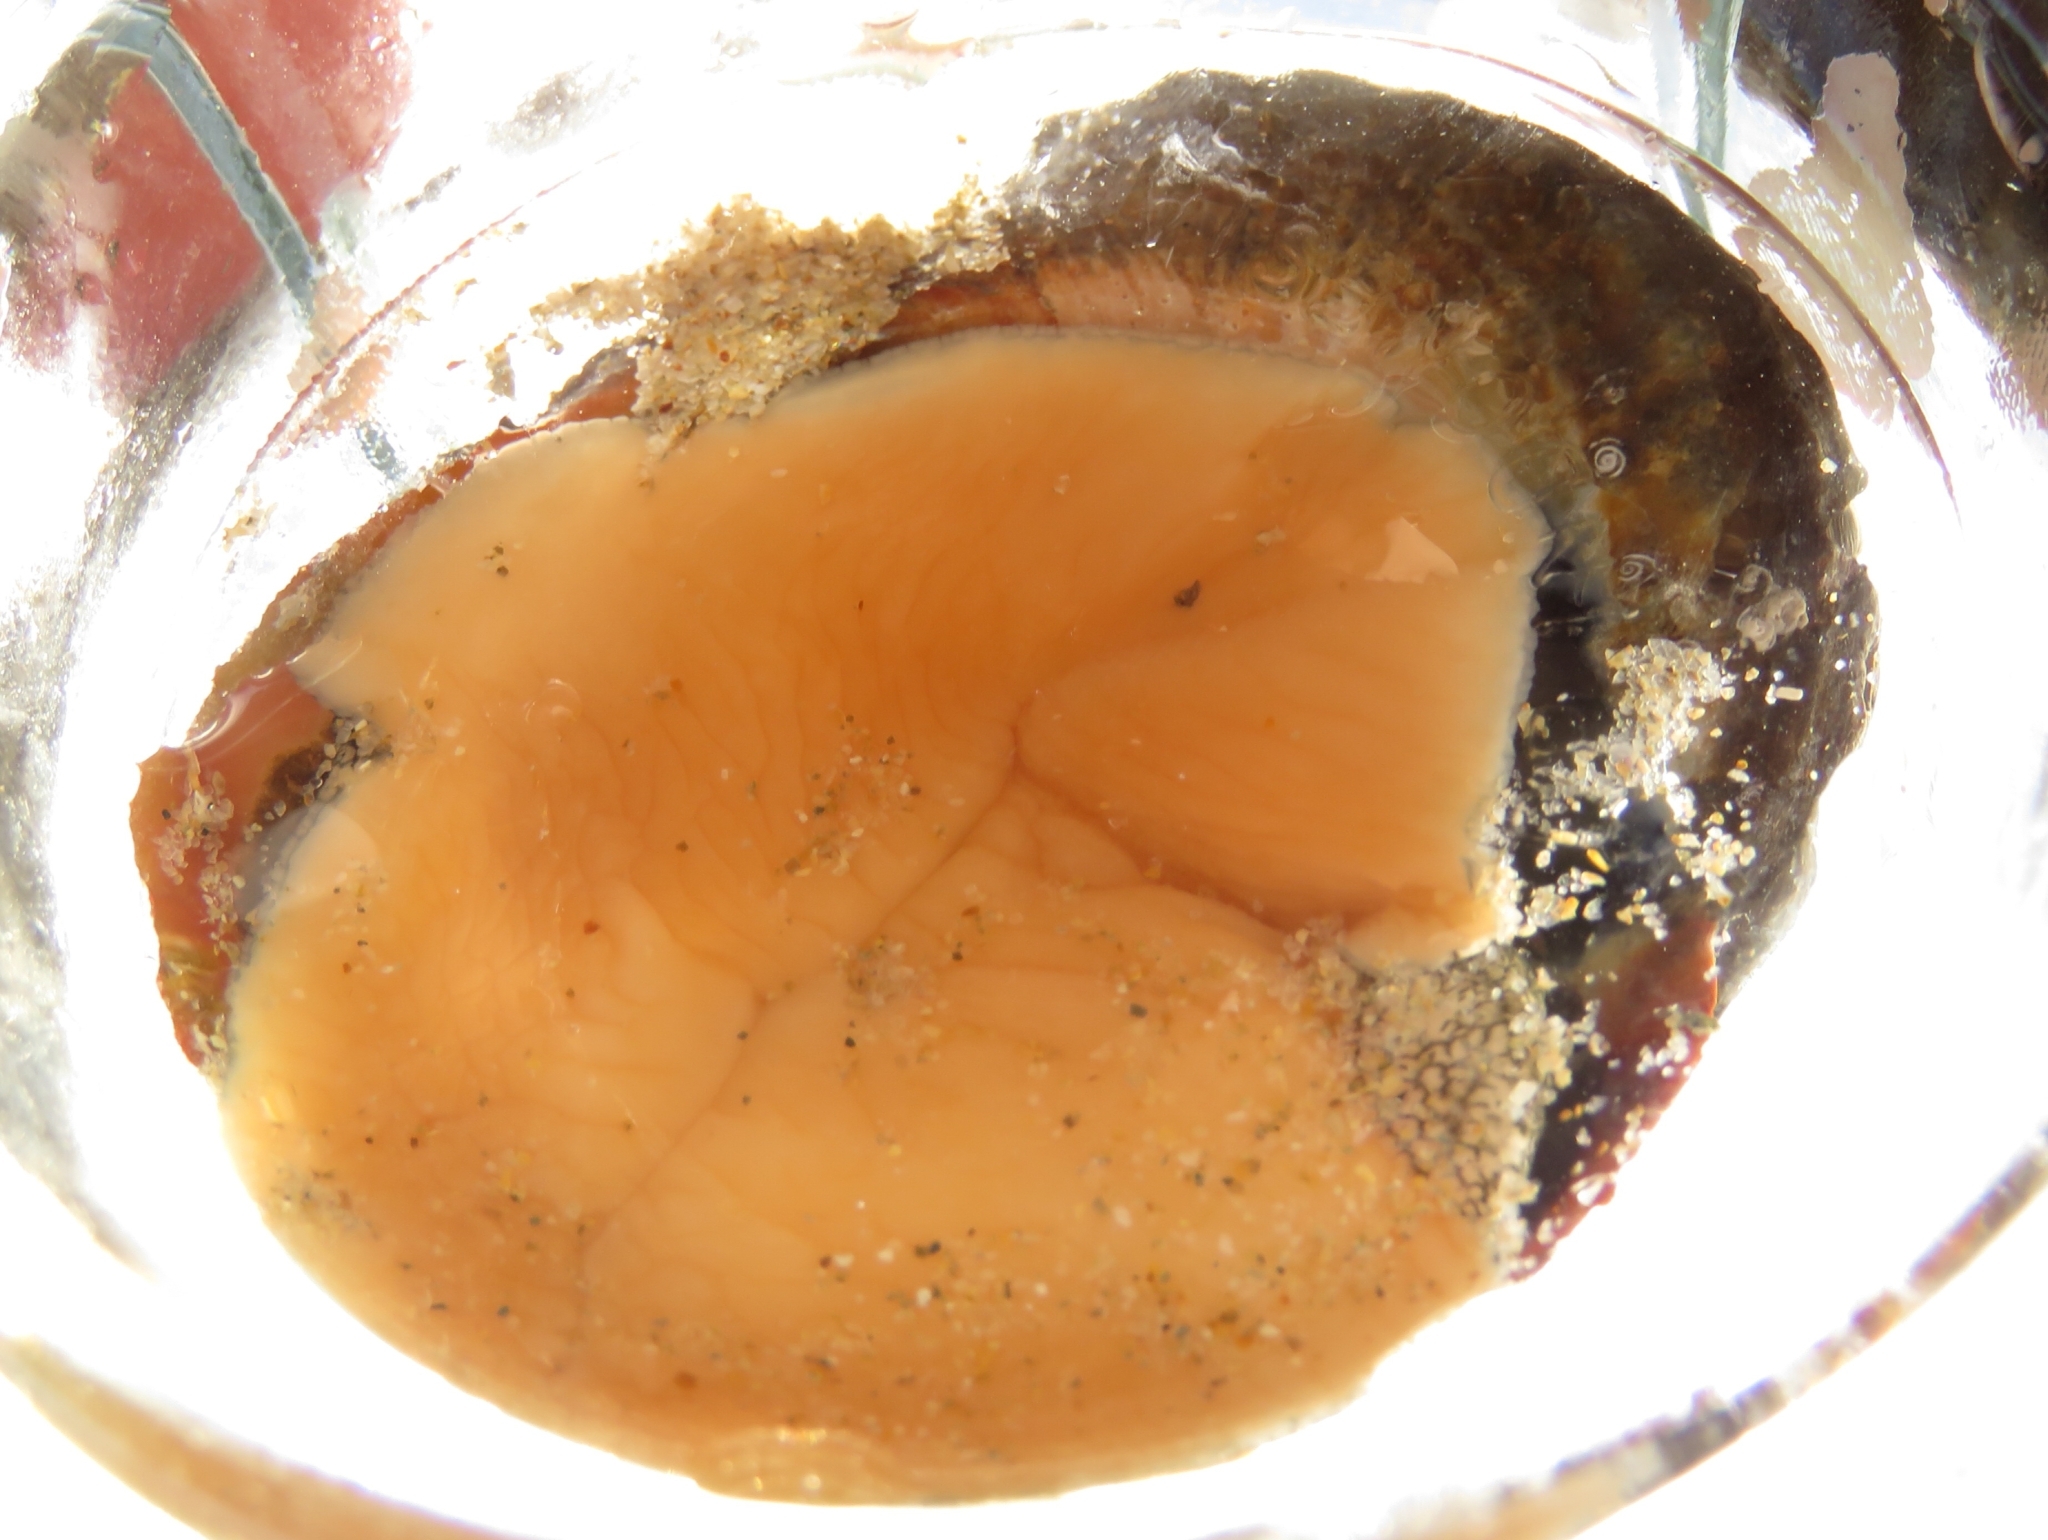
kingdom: Animalia
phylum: Mollusca
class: Gastropoda
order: Trochida
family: Turbinidae
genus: Turbo
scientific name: Turbo sarmaticus
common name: South african turban
